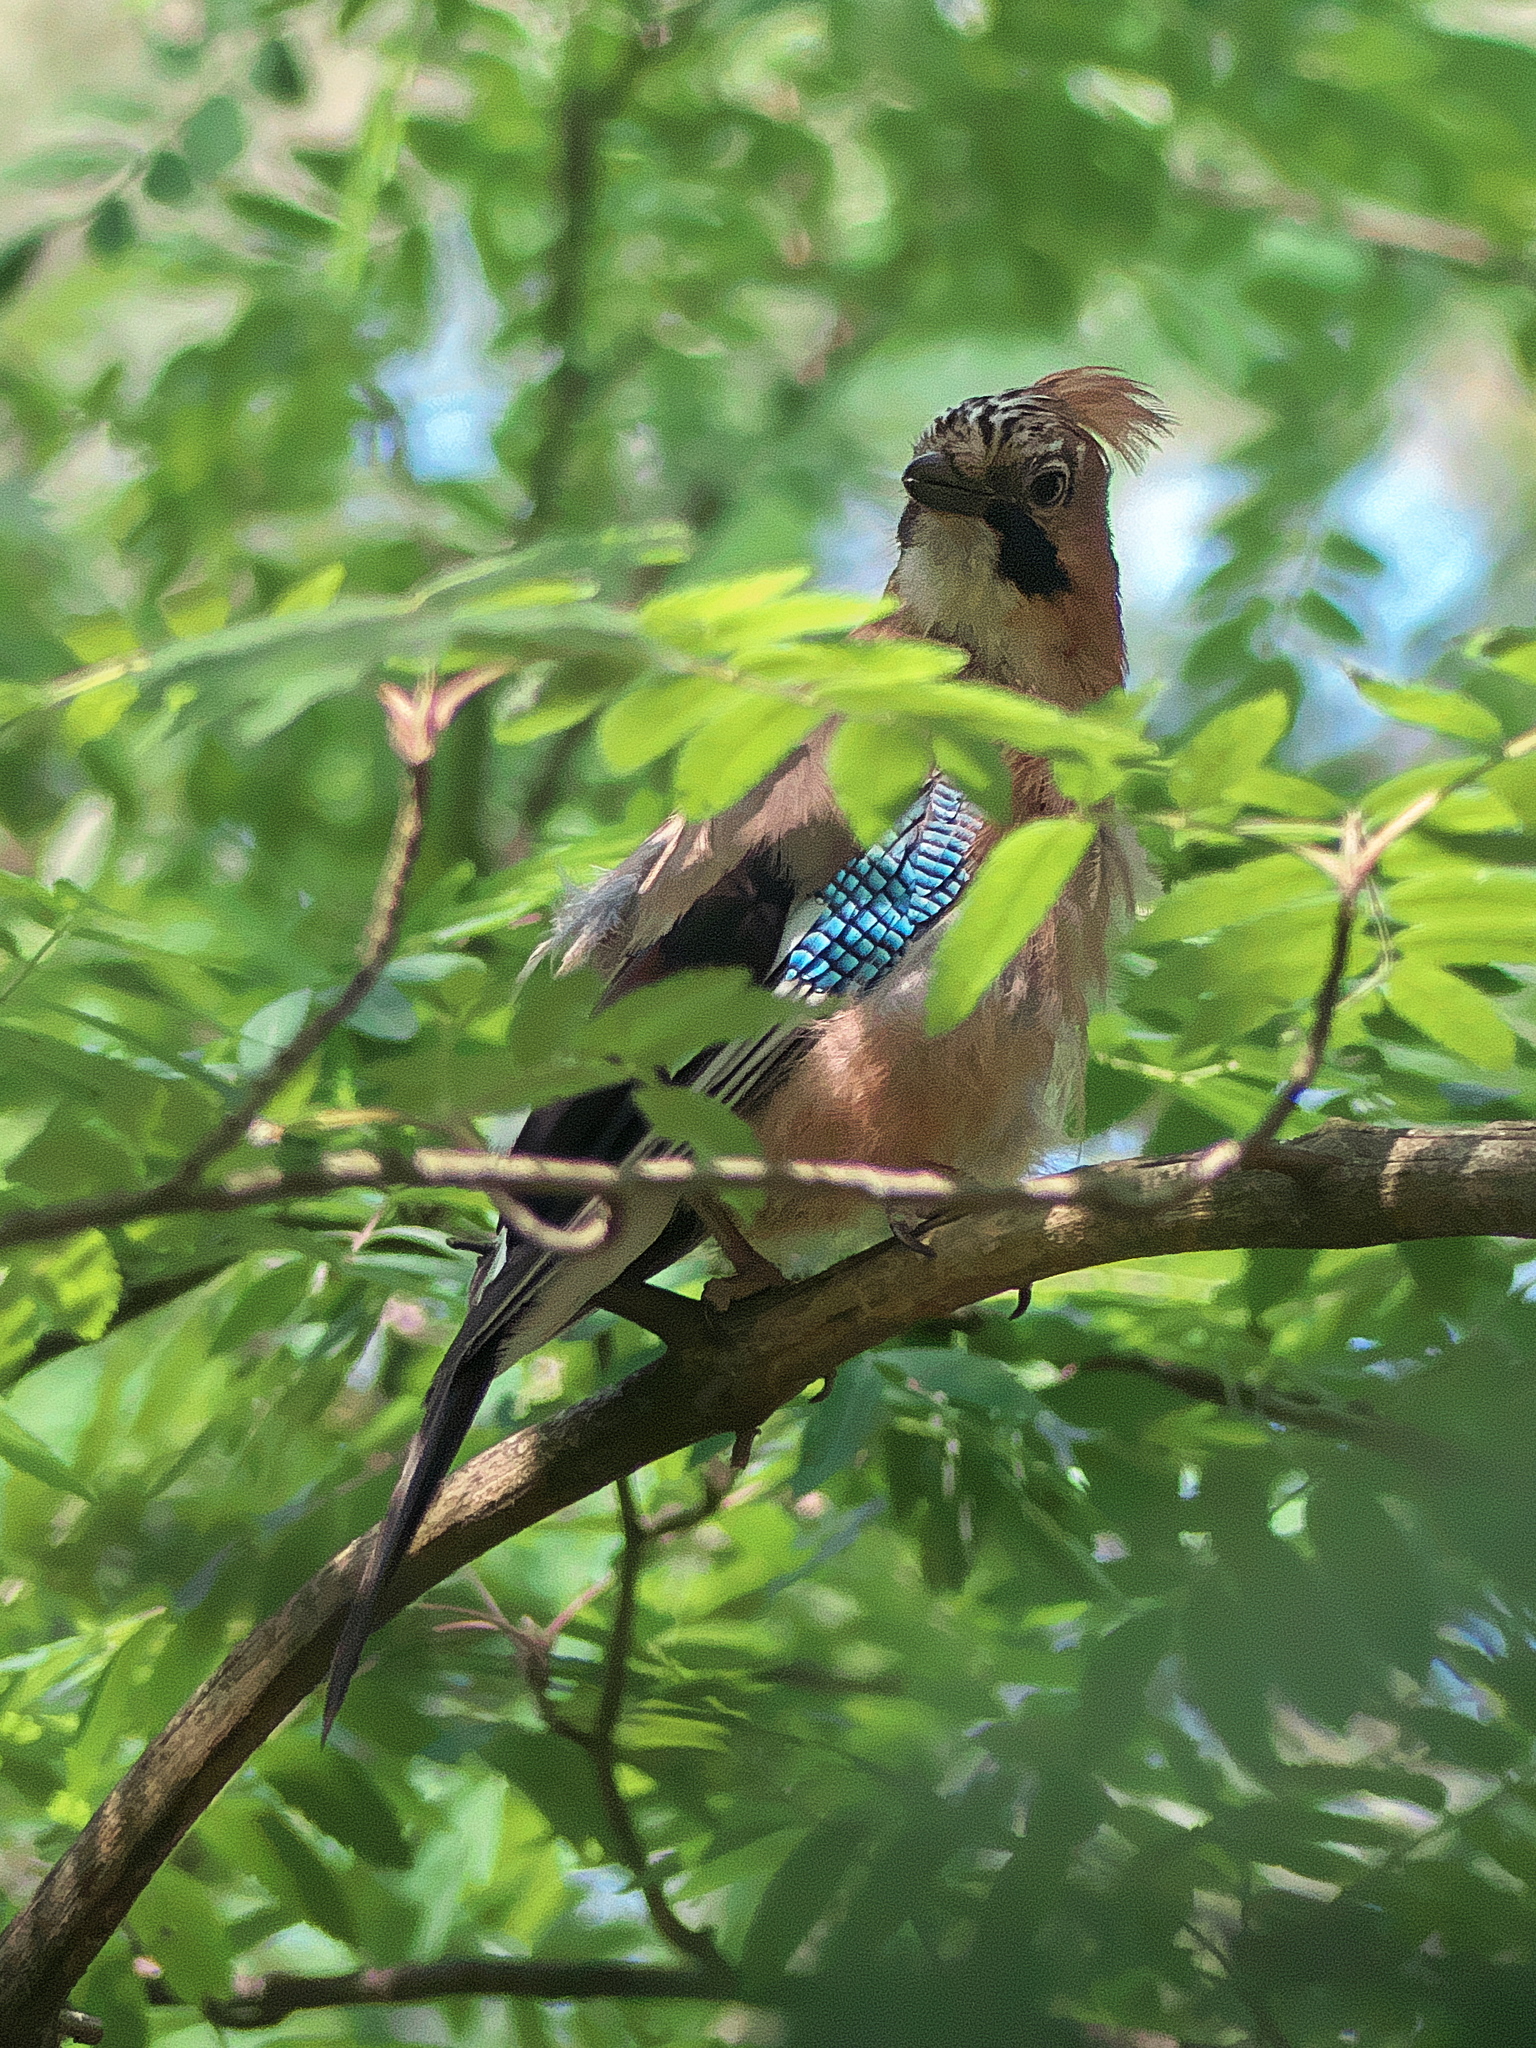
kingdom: Animalia
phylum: Chordata
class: Aves
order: Passeriformes
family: Corvidae
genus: Garrulus
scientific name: Garrulus glandarius
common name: Eurasian jay
